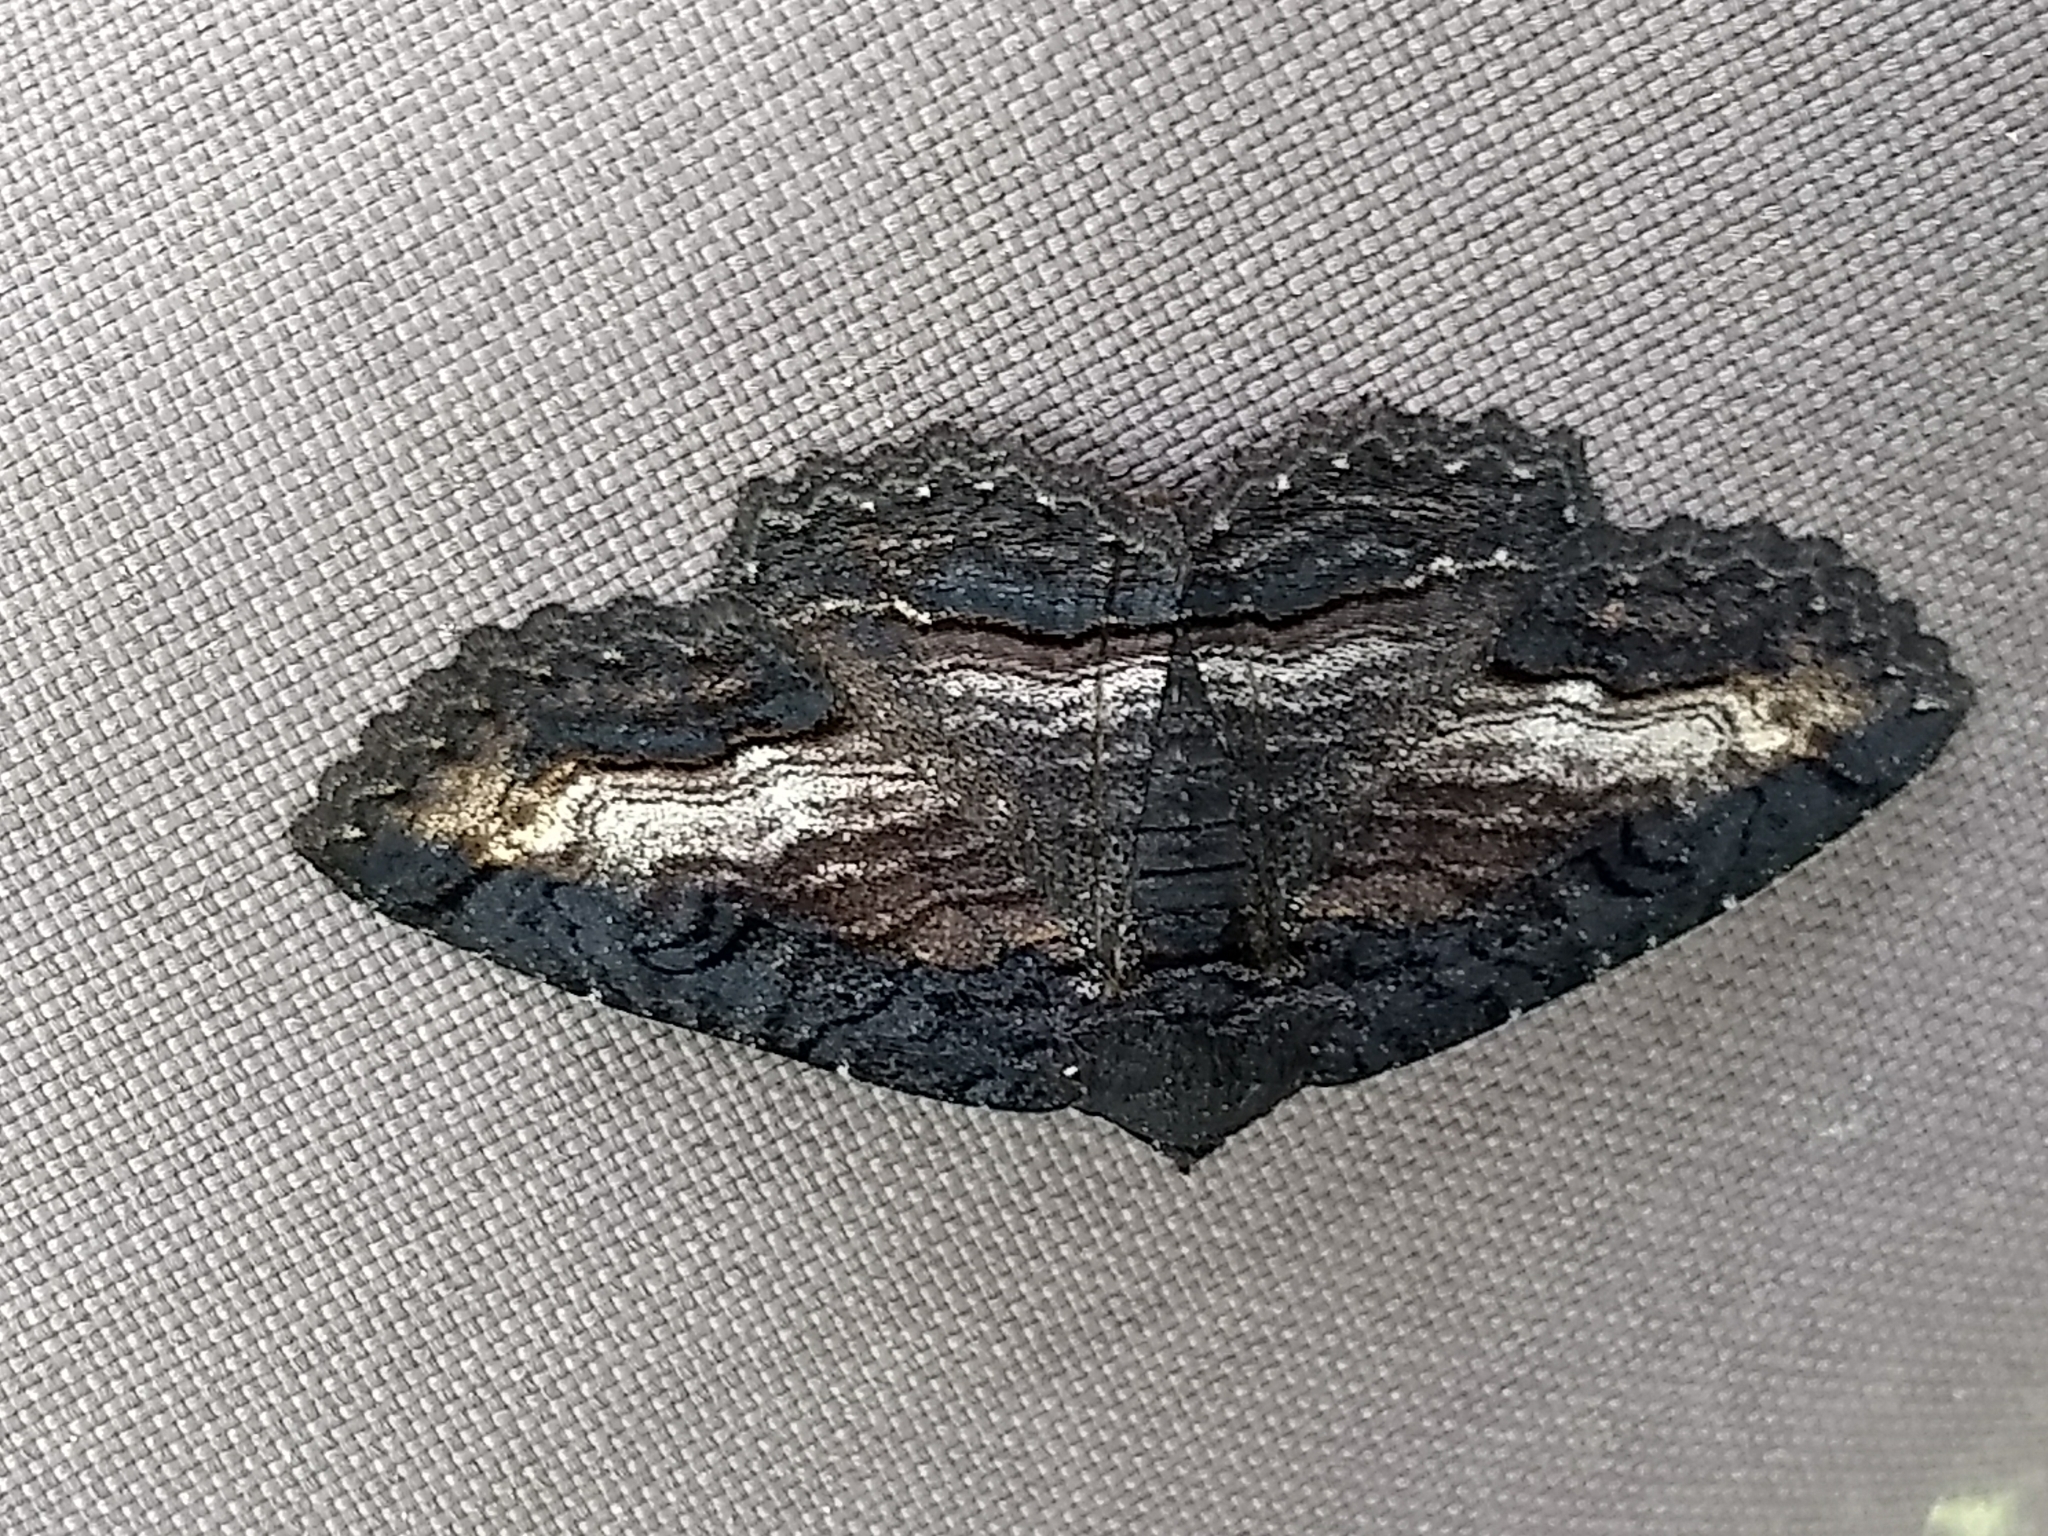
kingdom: Animalia
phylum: Arthropoda
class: Insecta
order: Lepidoptera
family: Erebidae
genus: Zale
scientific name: Zale undularis
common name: Black zale moth
